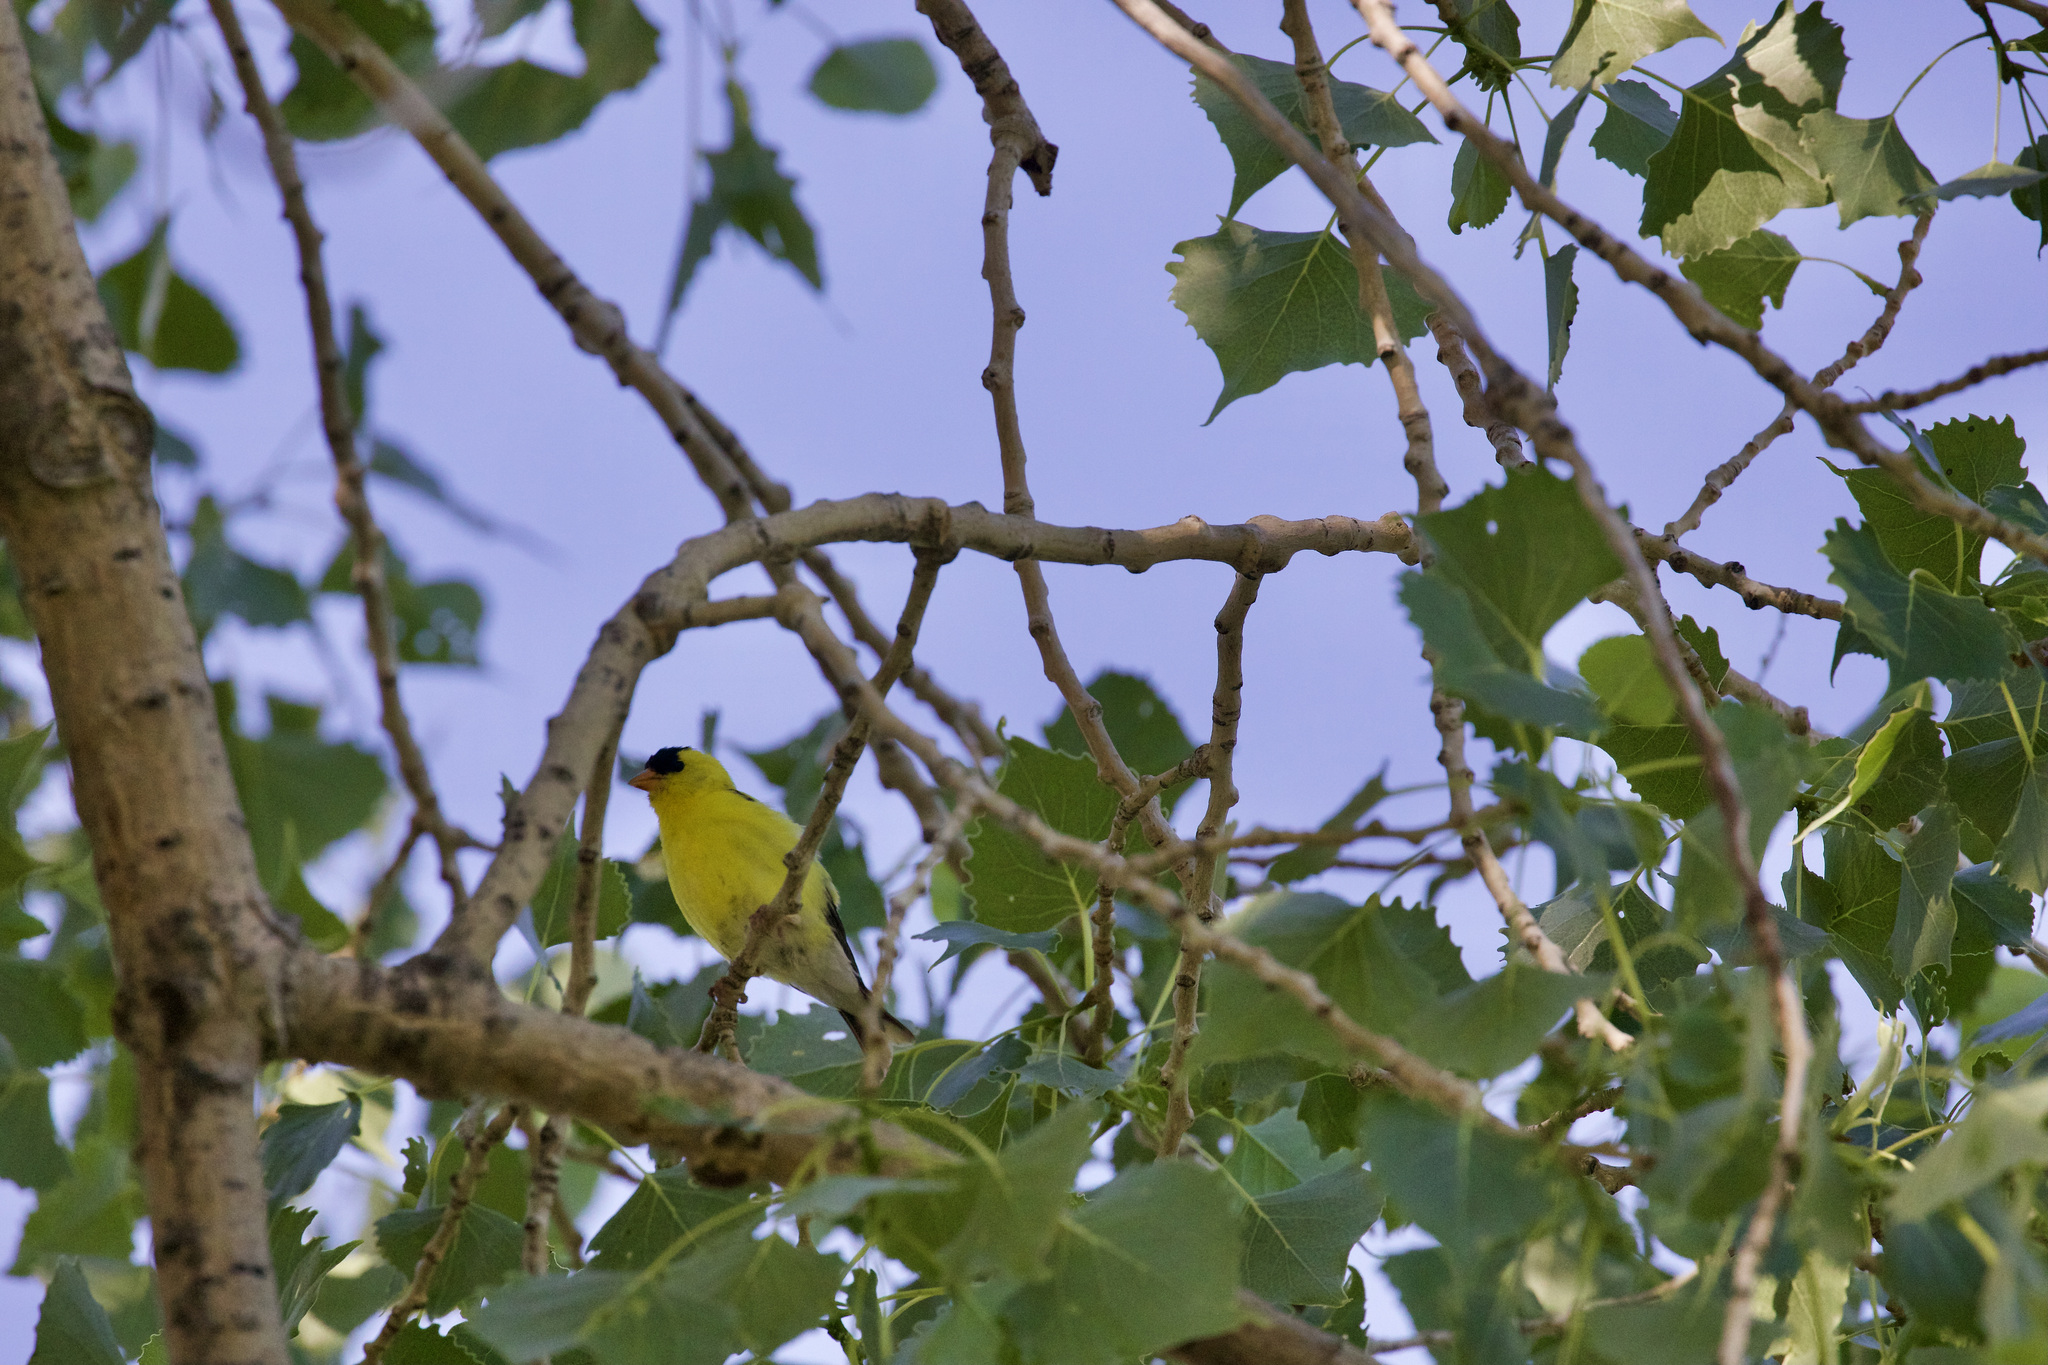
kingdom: Animalia
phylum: Chordata
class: Aves
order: Passeriformes
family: Fringillidae
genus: Spinus
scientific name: Spinus tristis
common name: American goldfinch
